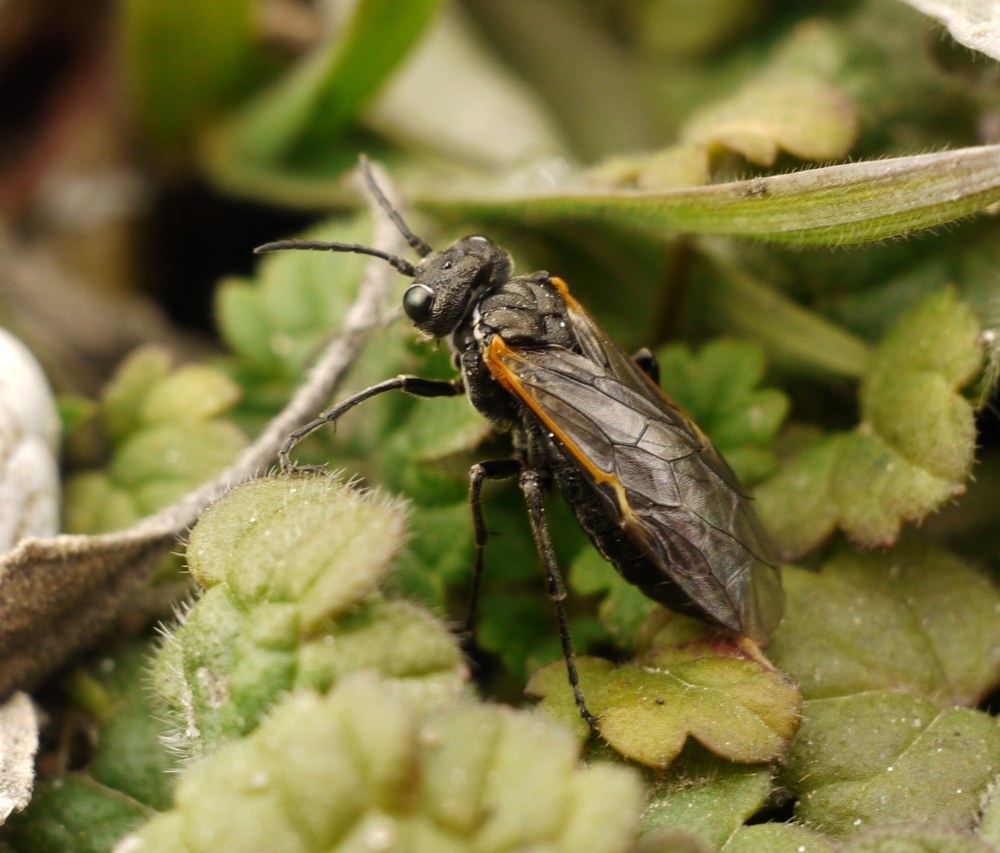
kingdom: Animalia
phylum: Arthropoda
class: Insecta
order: Hymenoptera
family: Tenthredinidae
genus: Sciapteryx
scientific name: Sciapteryx costalis
